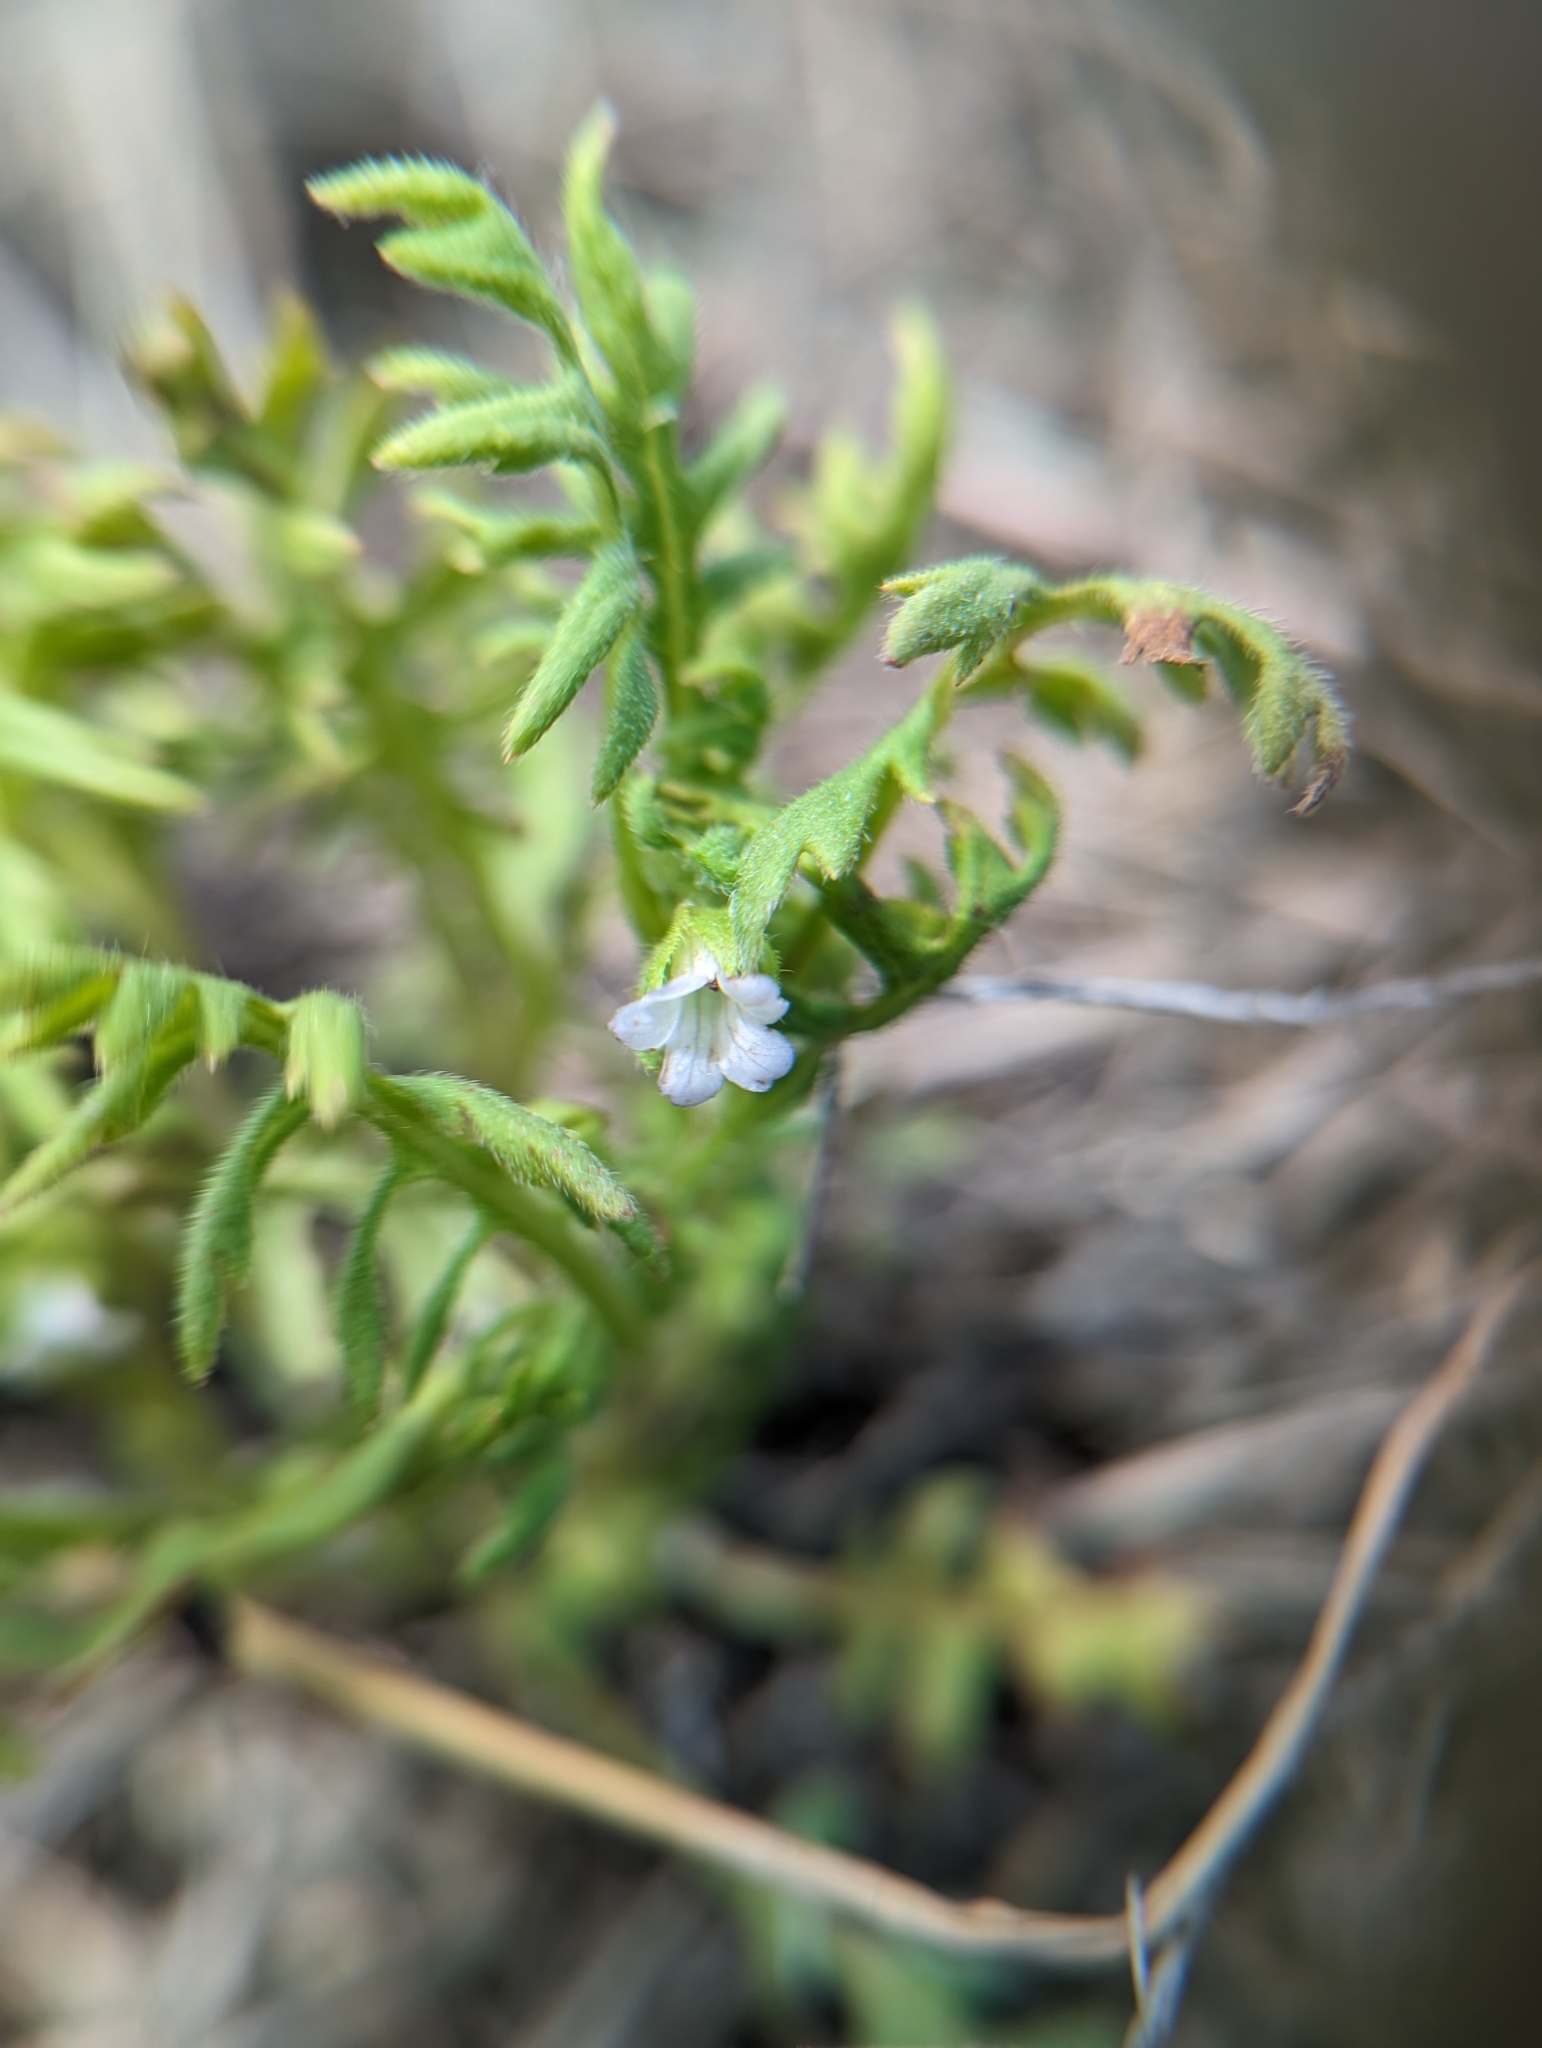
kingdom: Plantae
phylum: Tracheophyta
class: Magnoliopsida
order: Boraginales
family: Hydrophyllaceae
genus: Ellisia
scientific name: Ellisia nyctelea
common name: Aunt lucy
